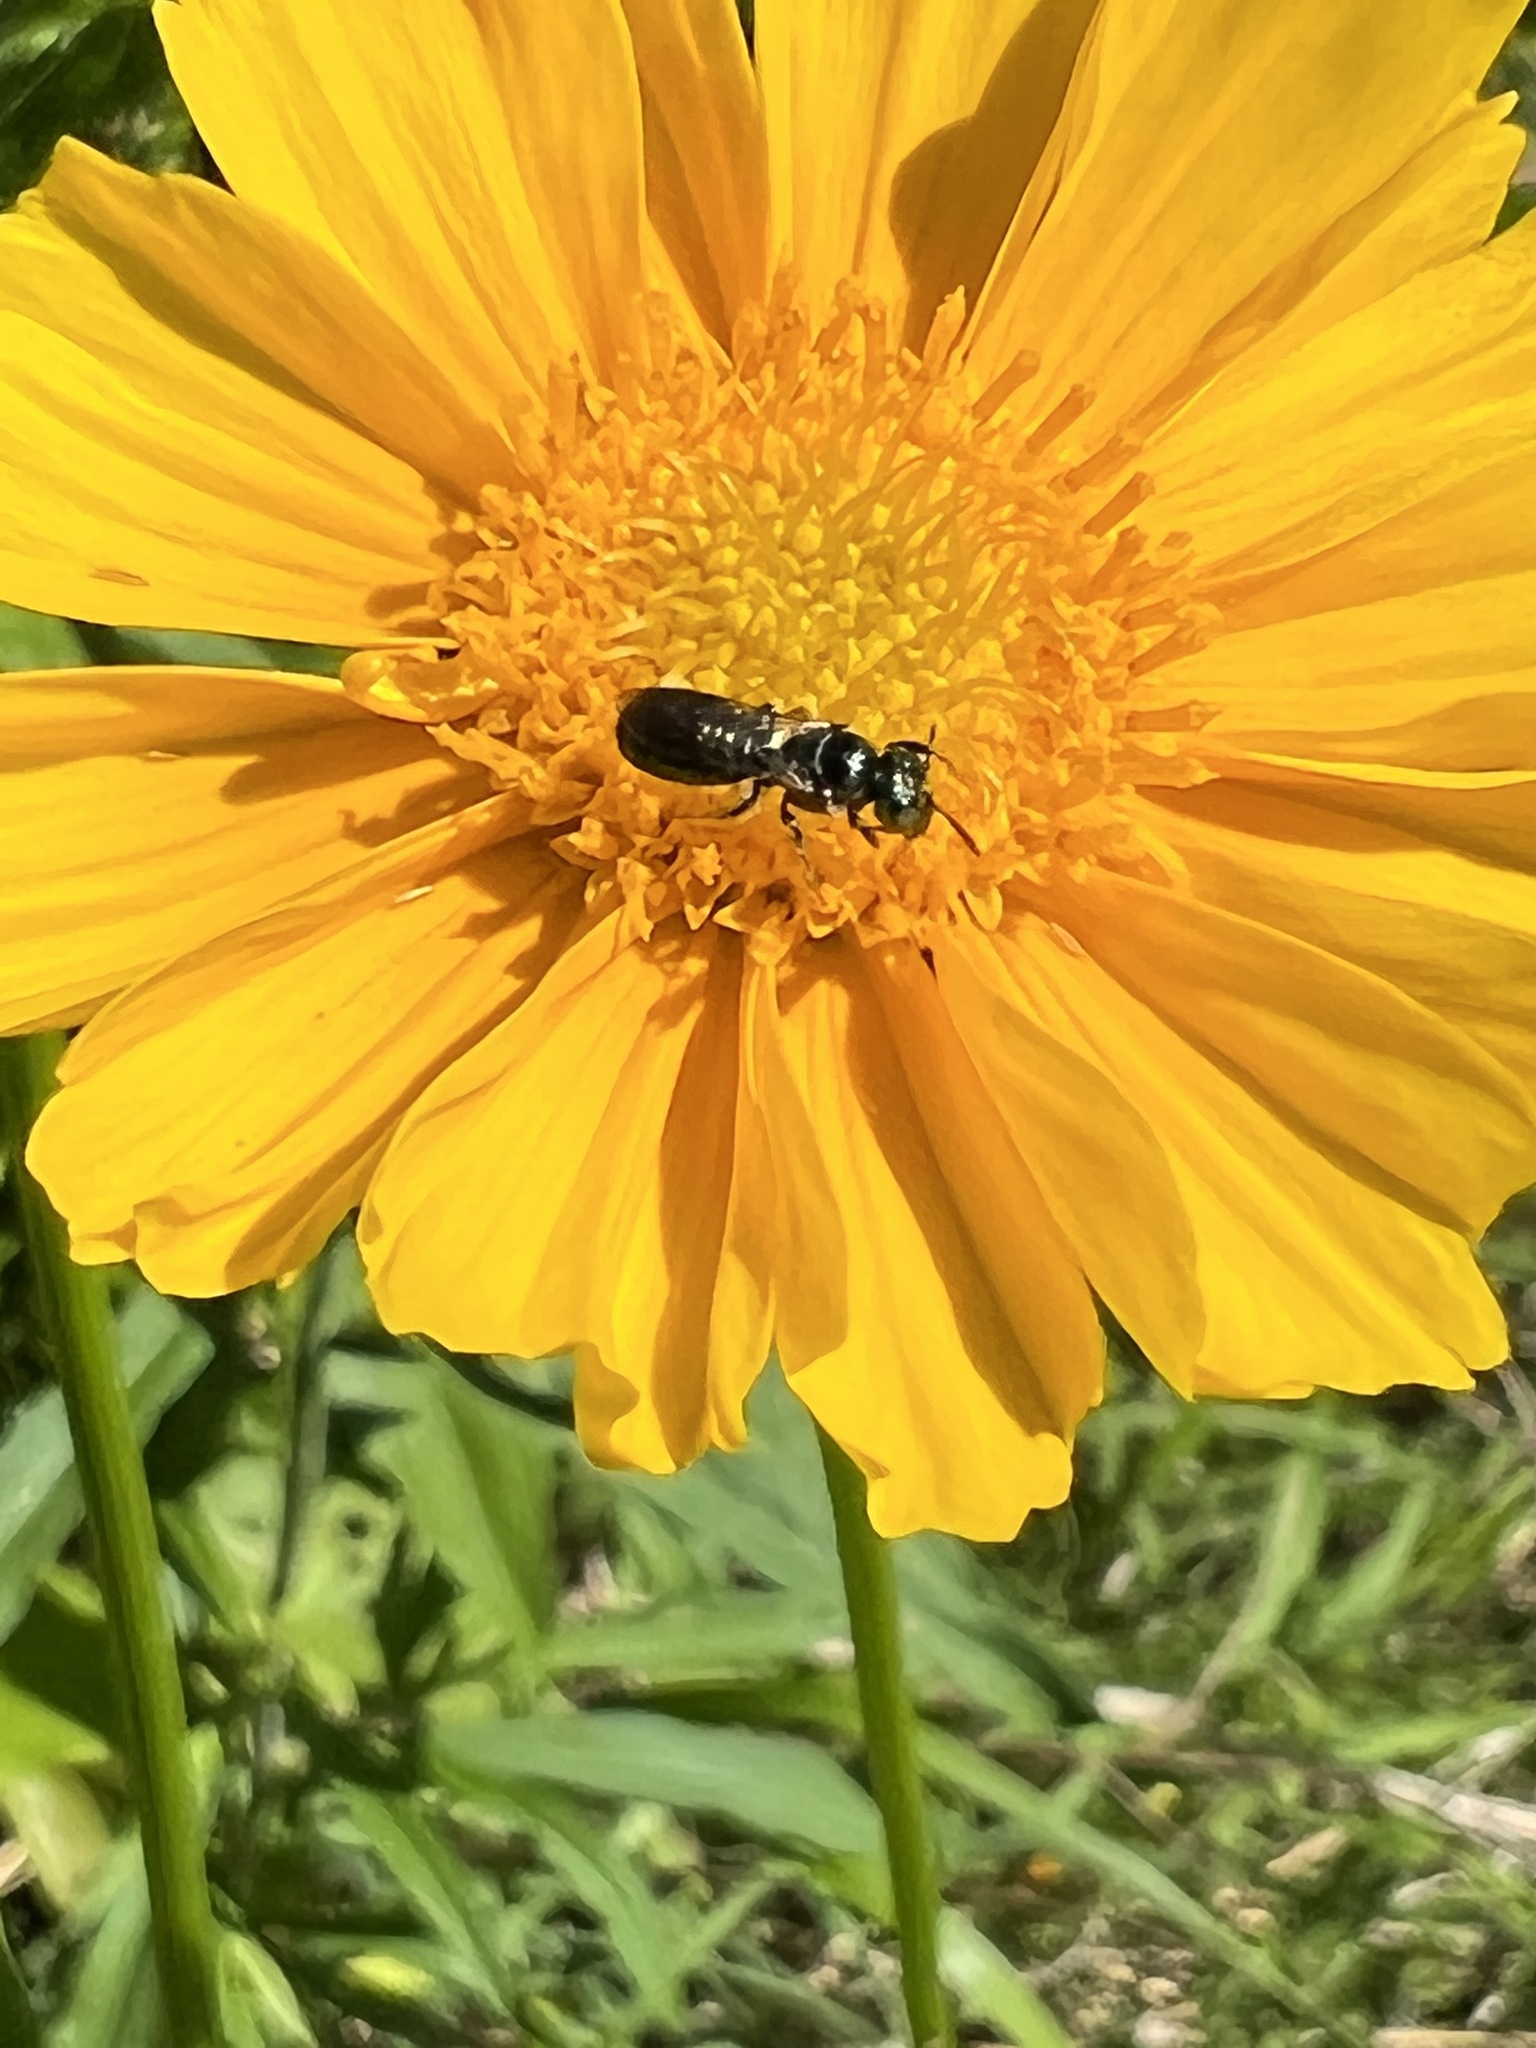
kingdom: Animalia
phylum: Arthropoda
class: Insecta
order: Hymenoptera
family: Apidae
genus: Zadontomerus
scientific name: Zadontomerus
